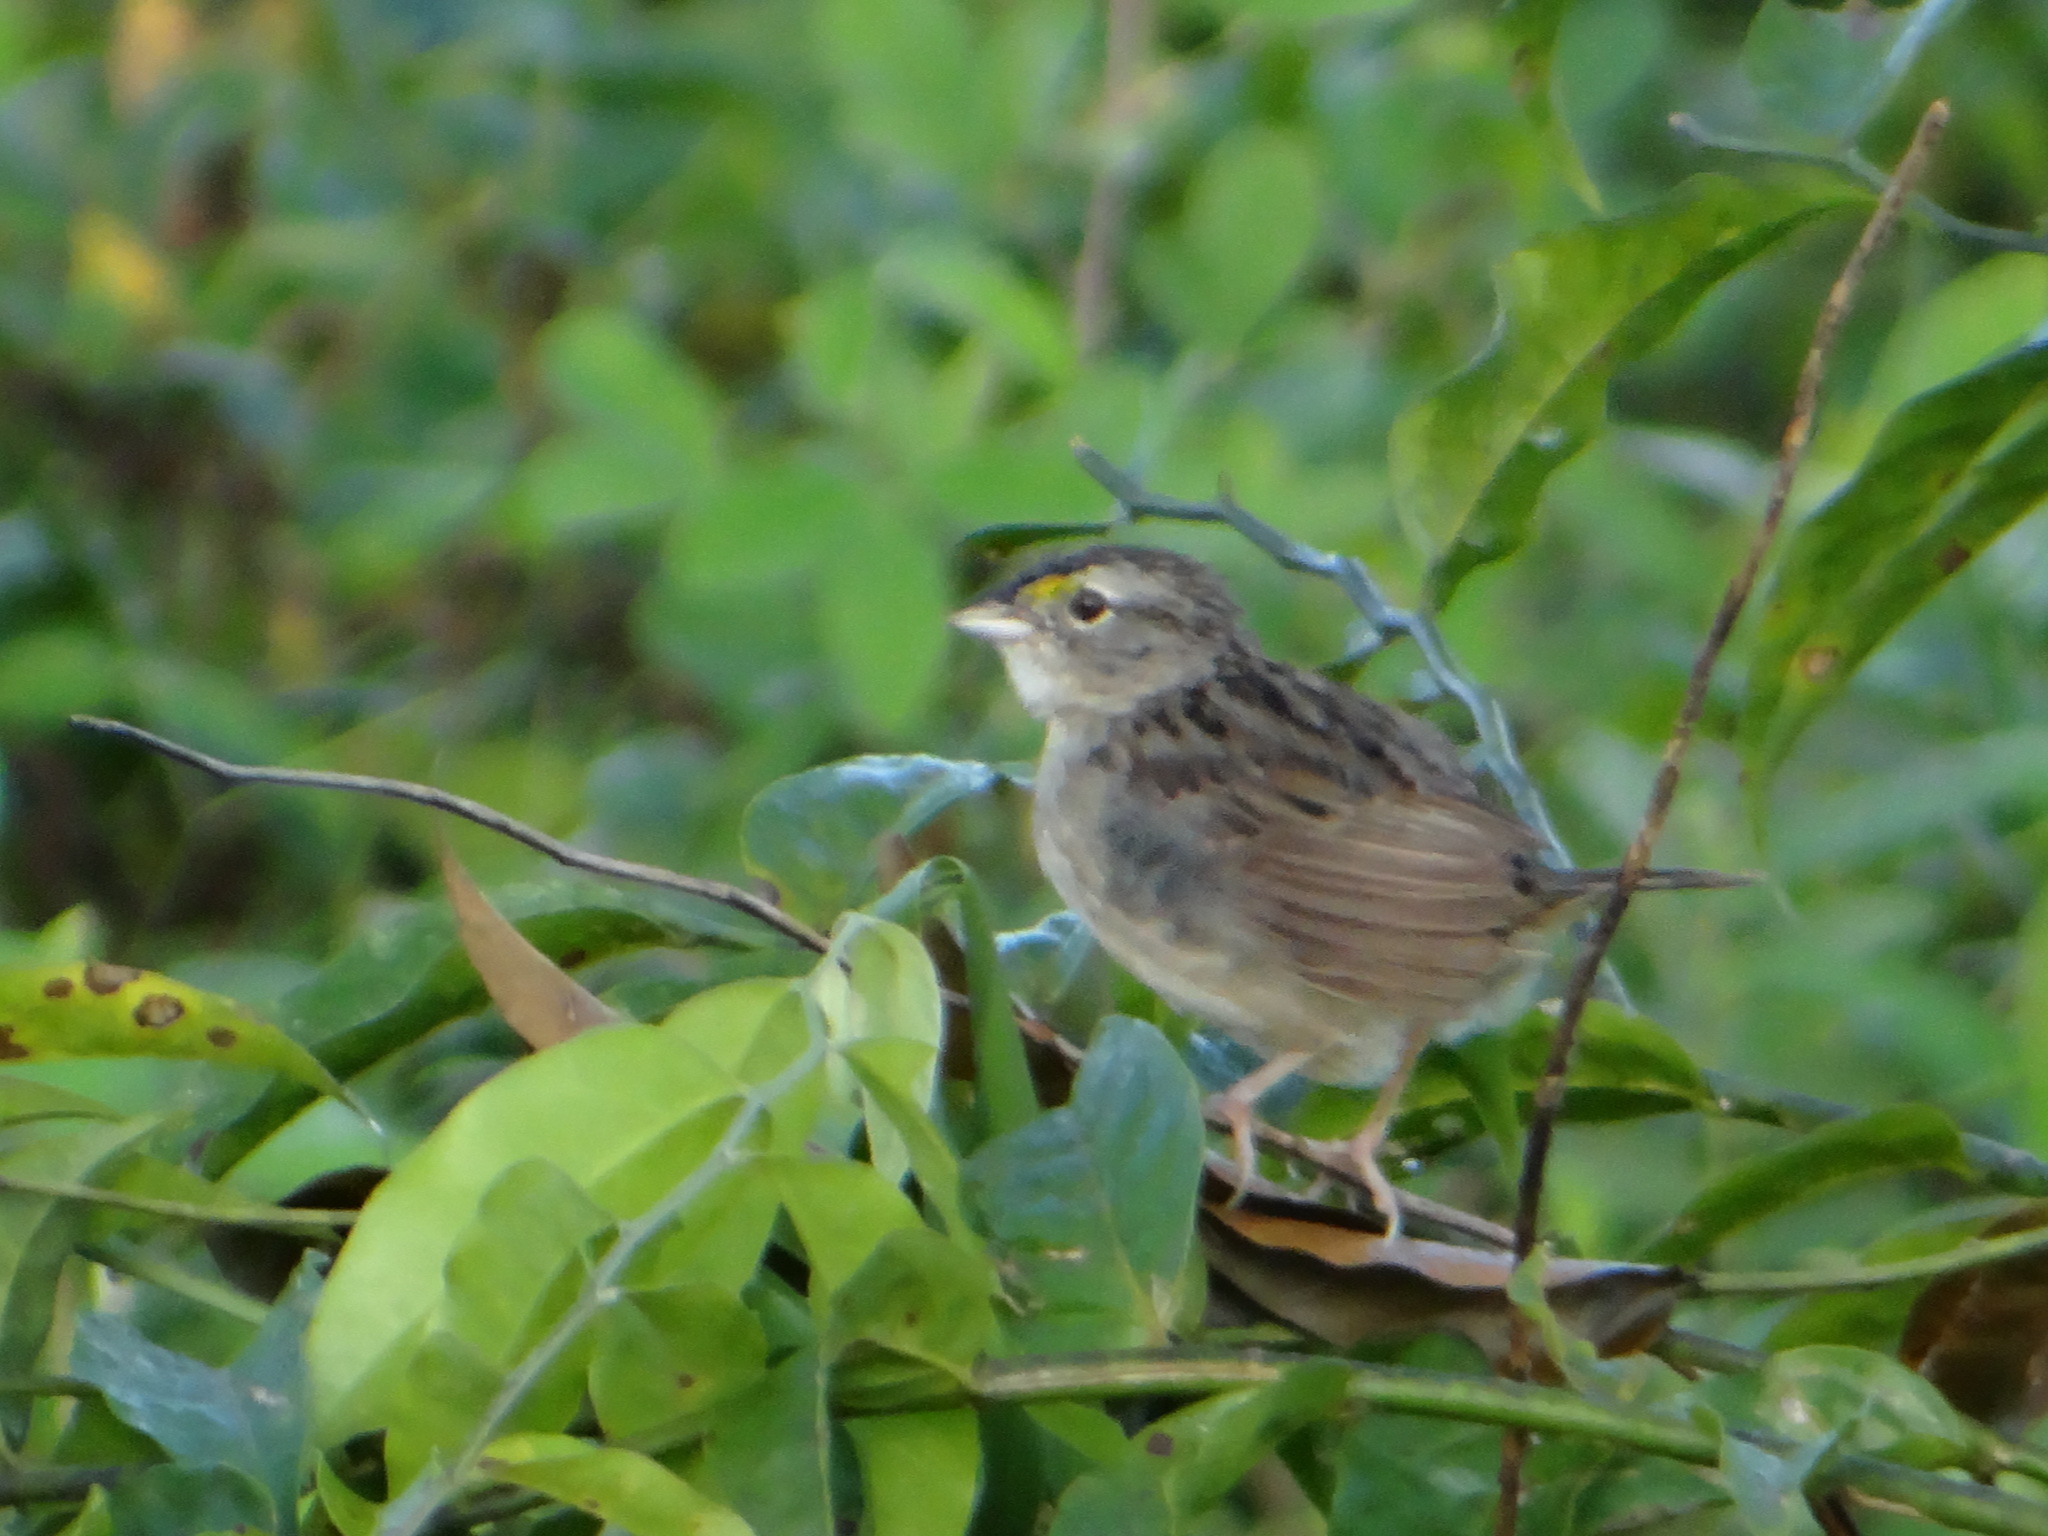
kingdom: Animalia
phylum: Chordata
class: Aves
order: Passeriformes
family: Passerellidae
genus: Ammodramus
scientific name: Ammodramus humeralis
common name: Grassland sparrow
